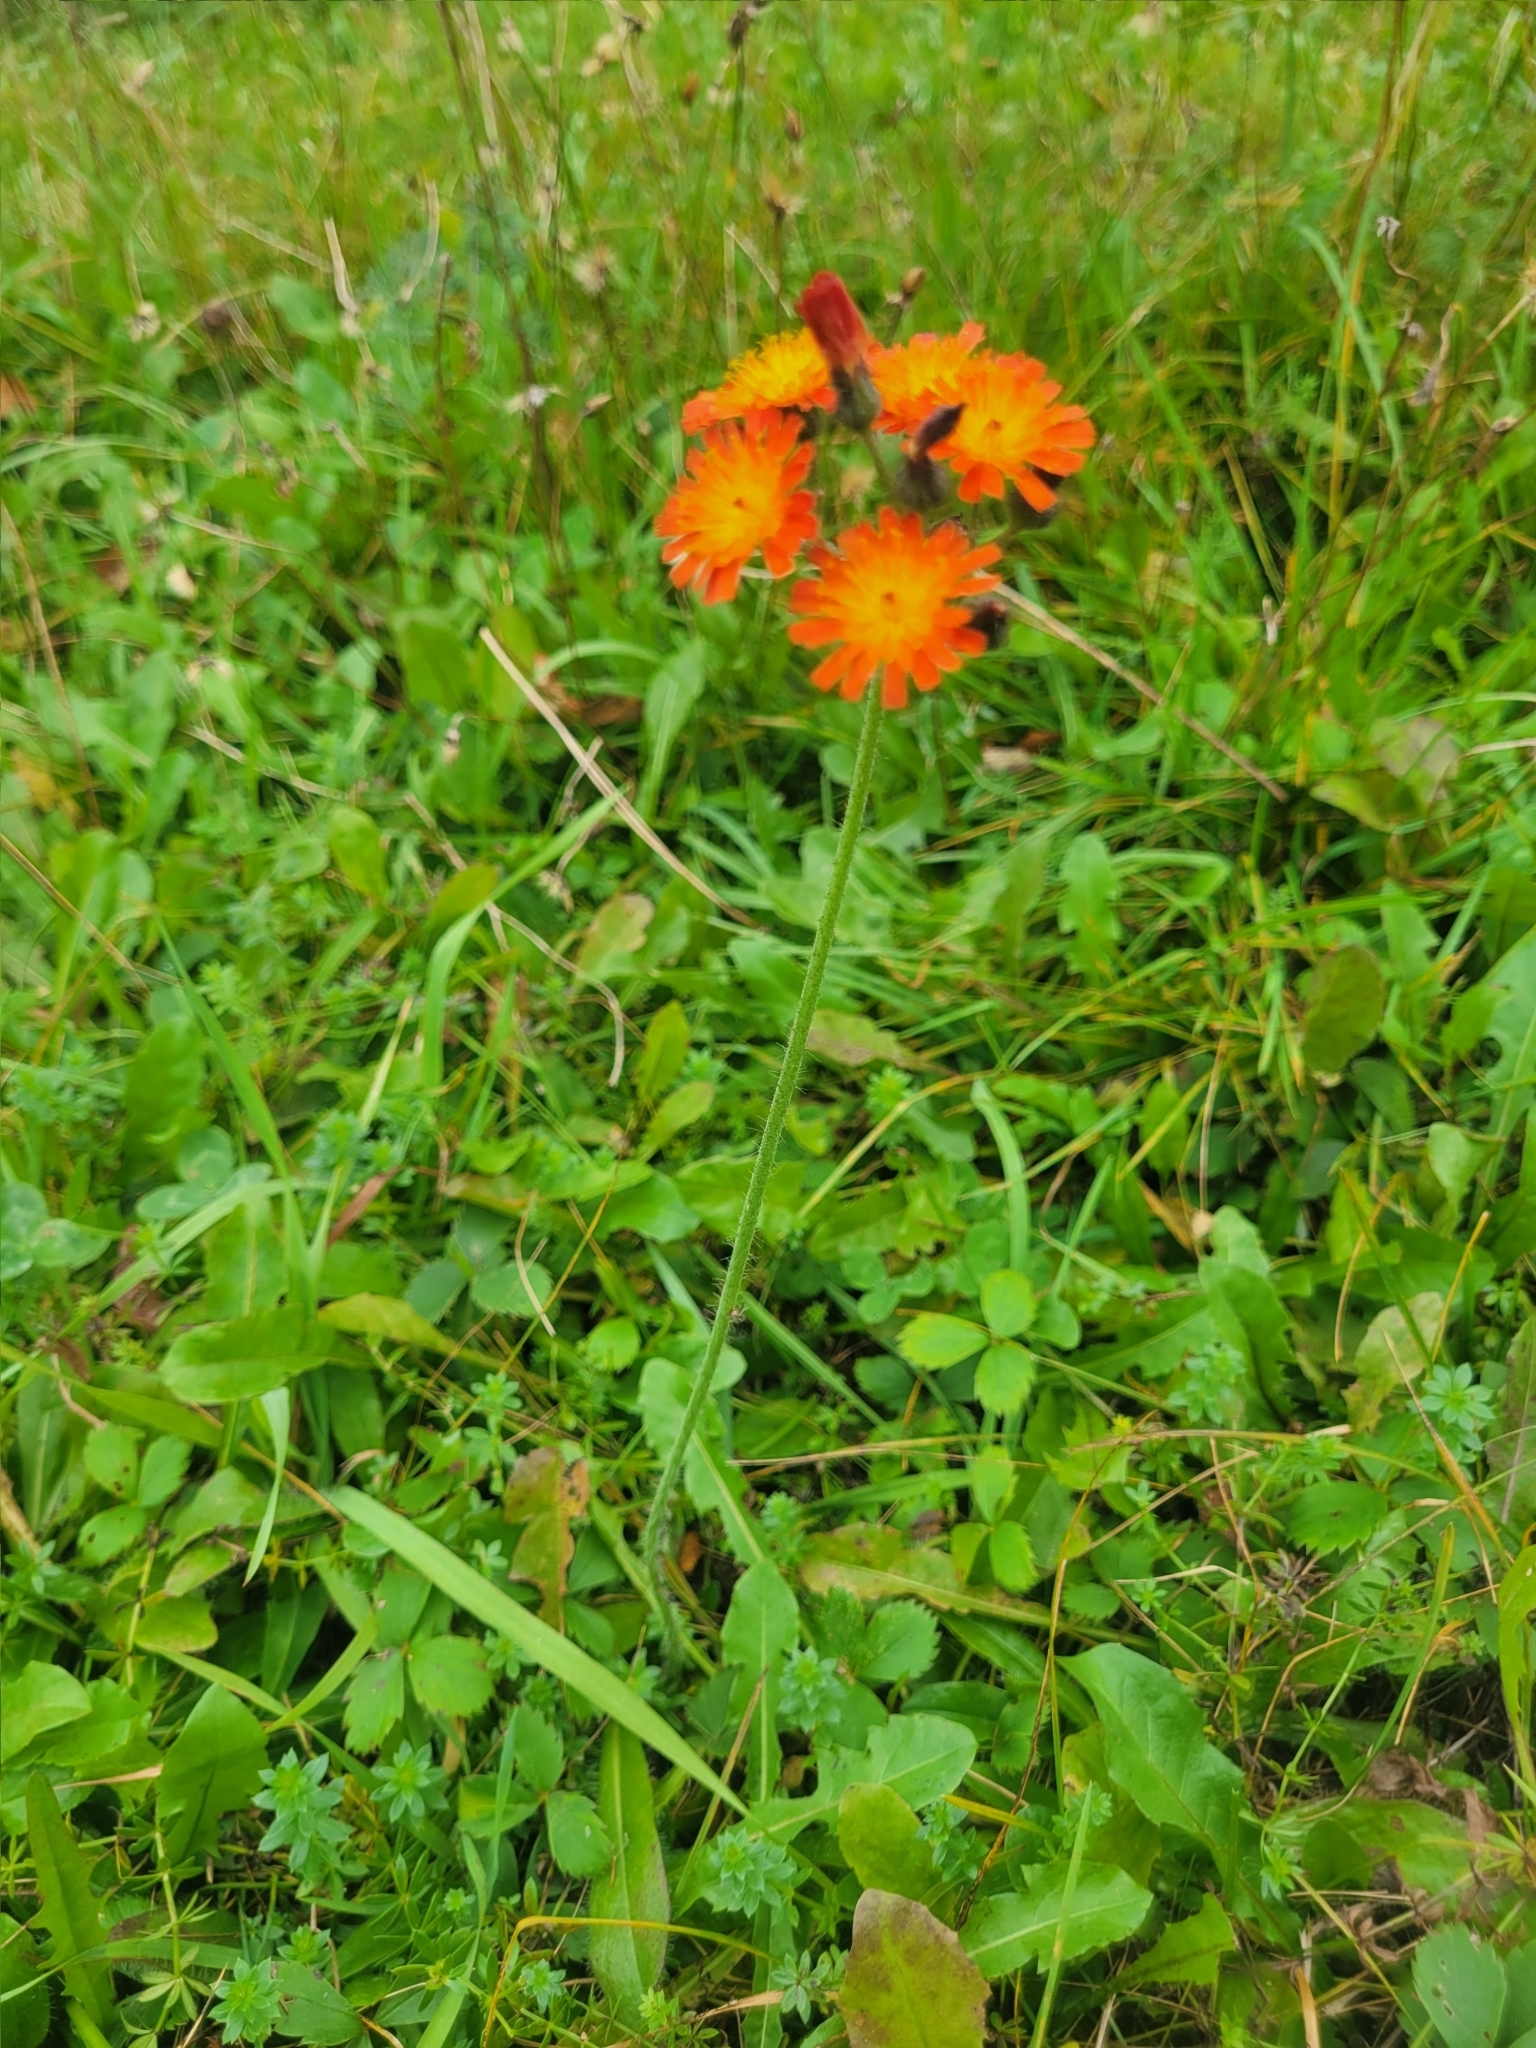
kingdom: Plantae
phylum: Tracheophyta
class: Magnoliopsida
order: Asterales
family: Asteraceae
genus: Pilosella
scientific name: Pilosella aurantiaca
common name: Fox-and-cubs
